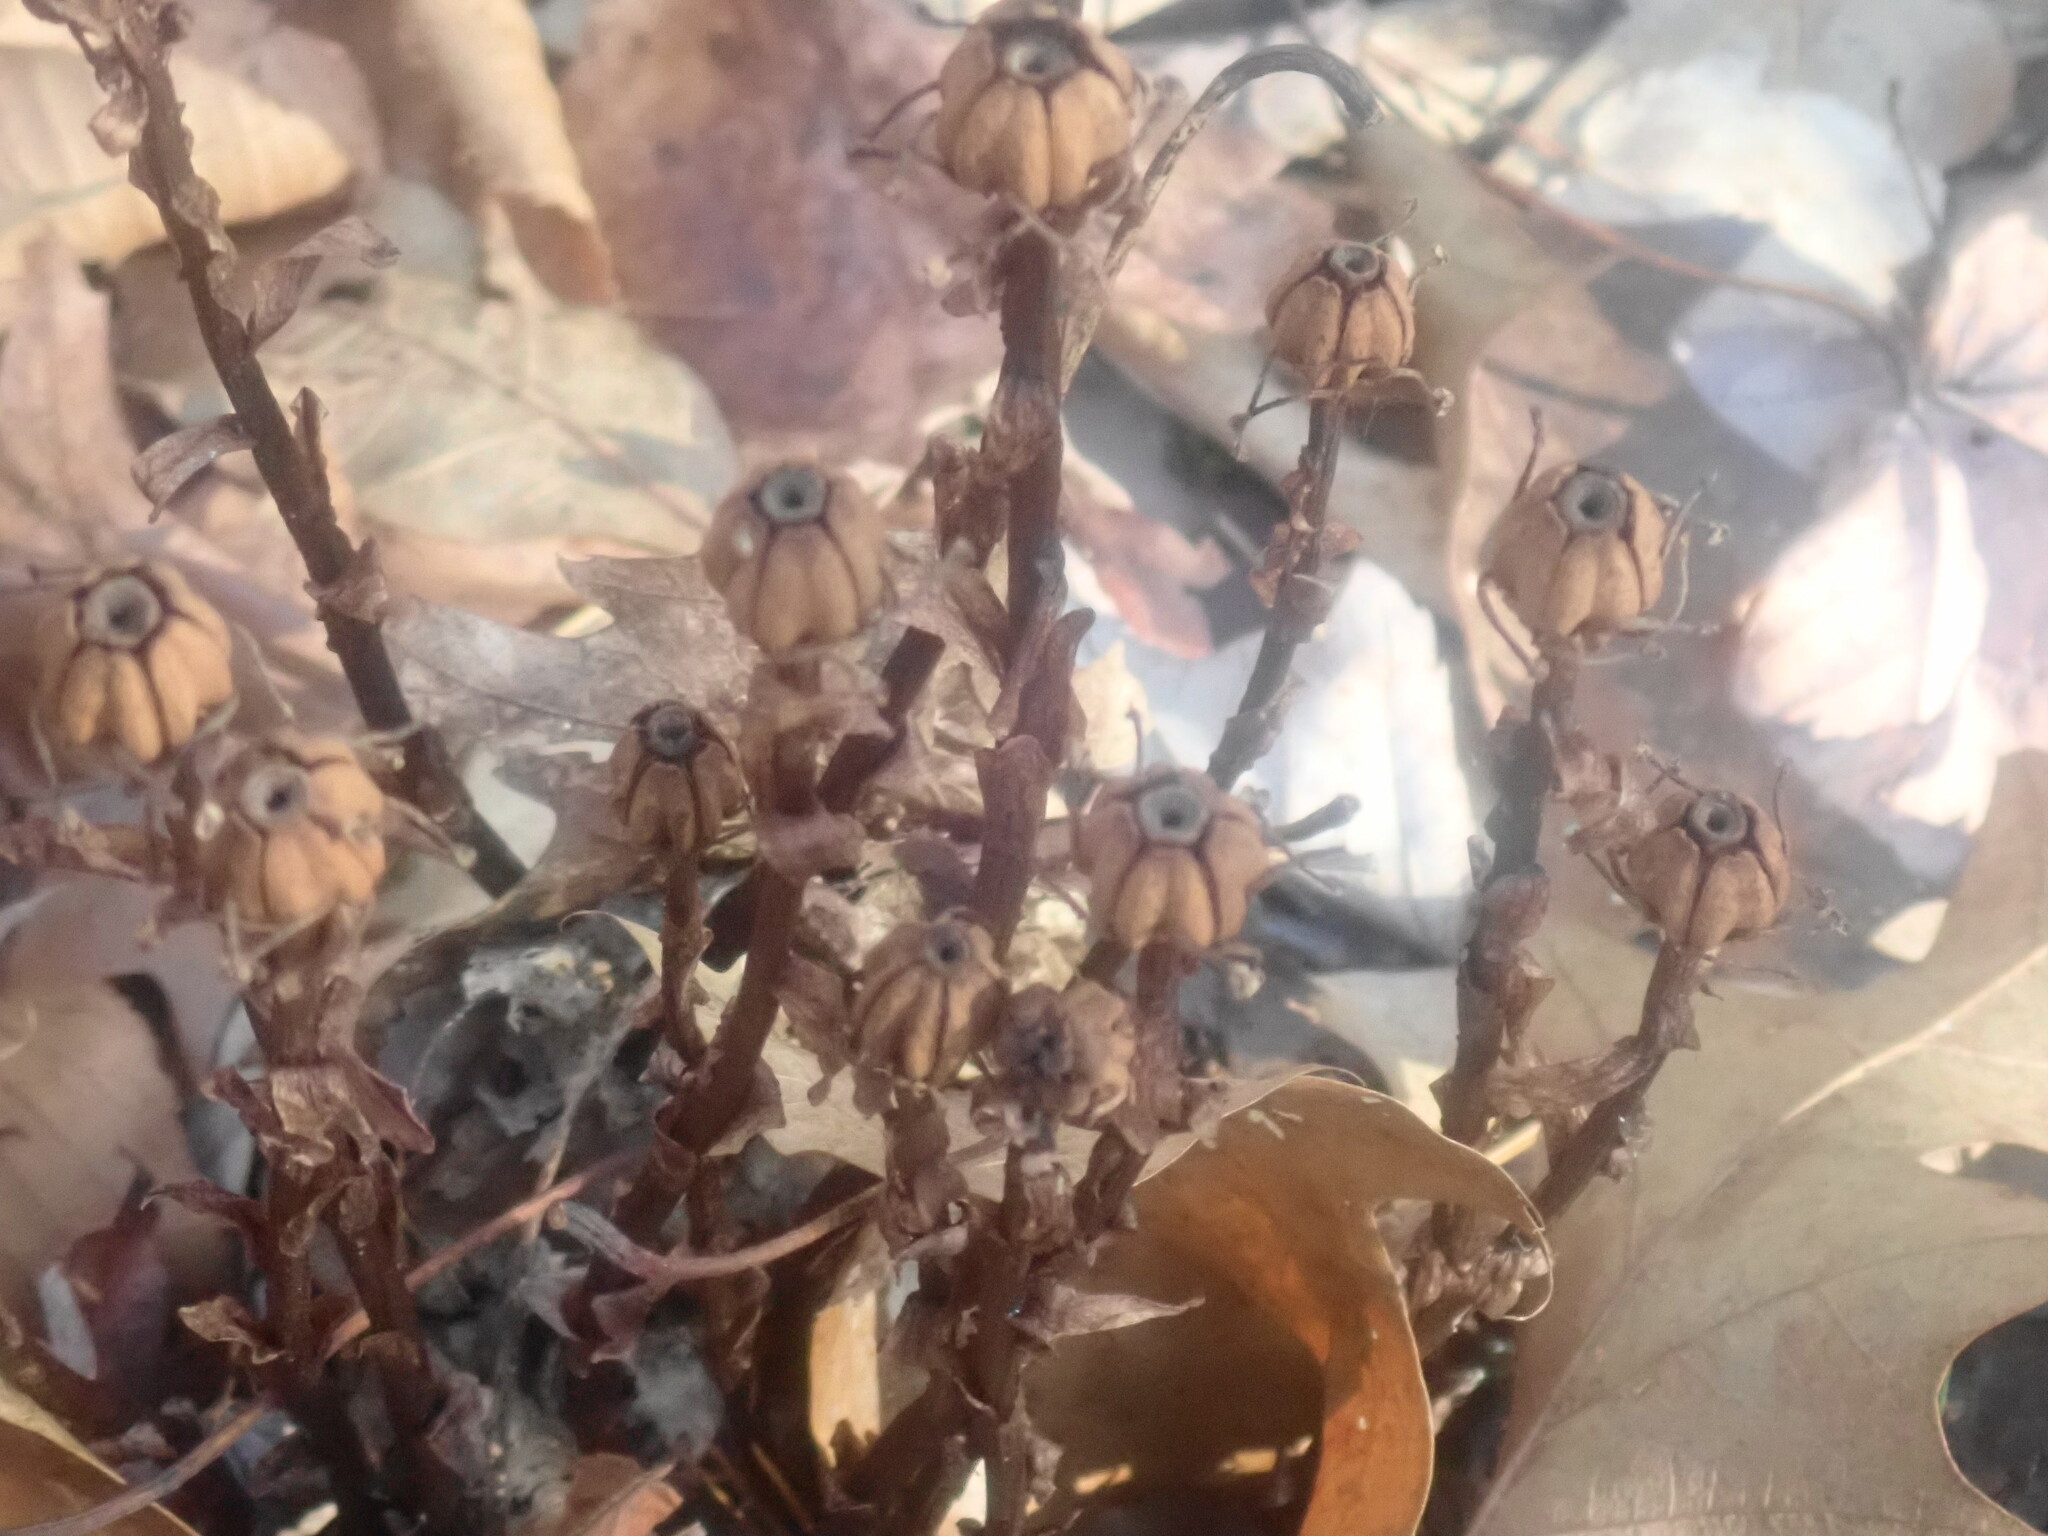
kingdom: Plantae
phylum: Tracheophyta
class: Magnoliopsida
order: Ericales
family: Ericaceae
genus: Monotropa
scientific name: Monotropa uniflora
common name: Convulsion root
